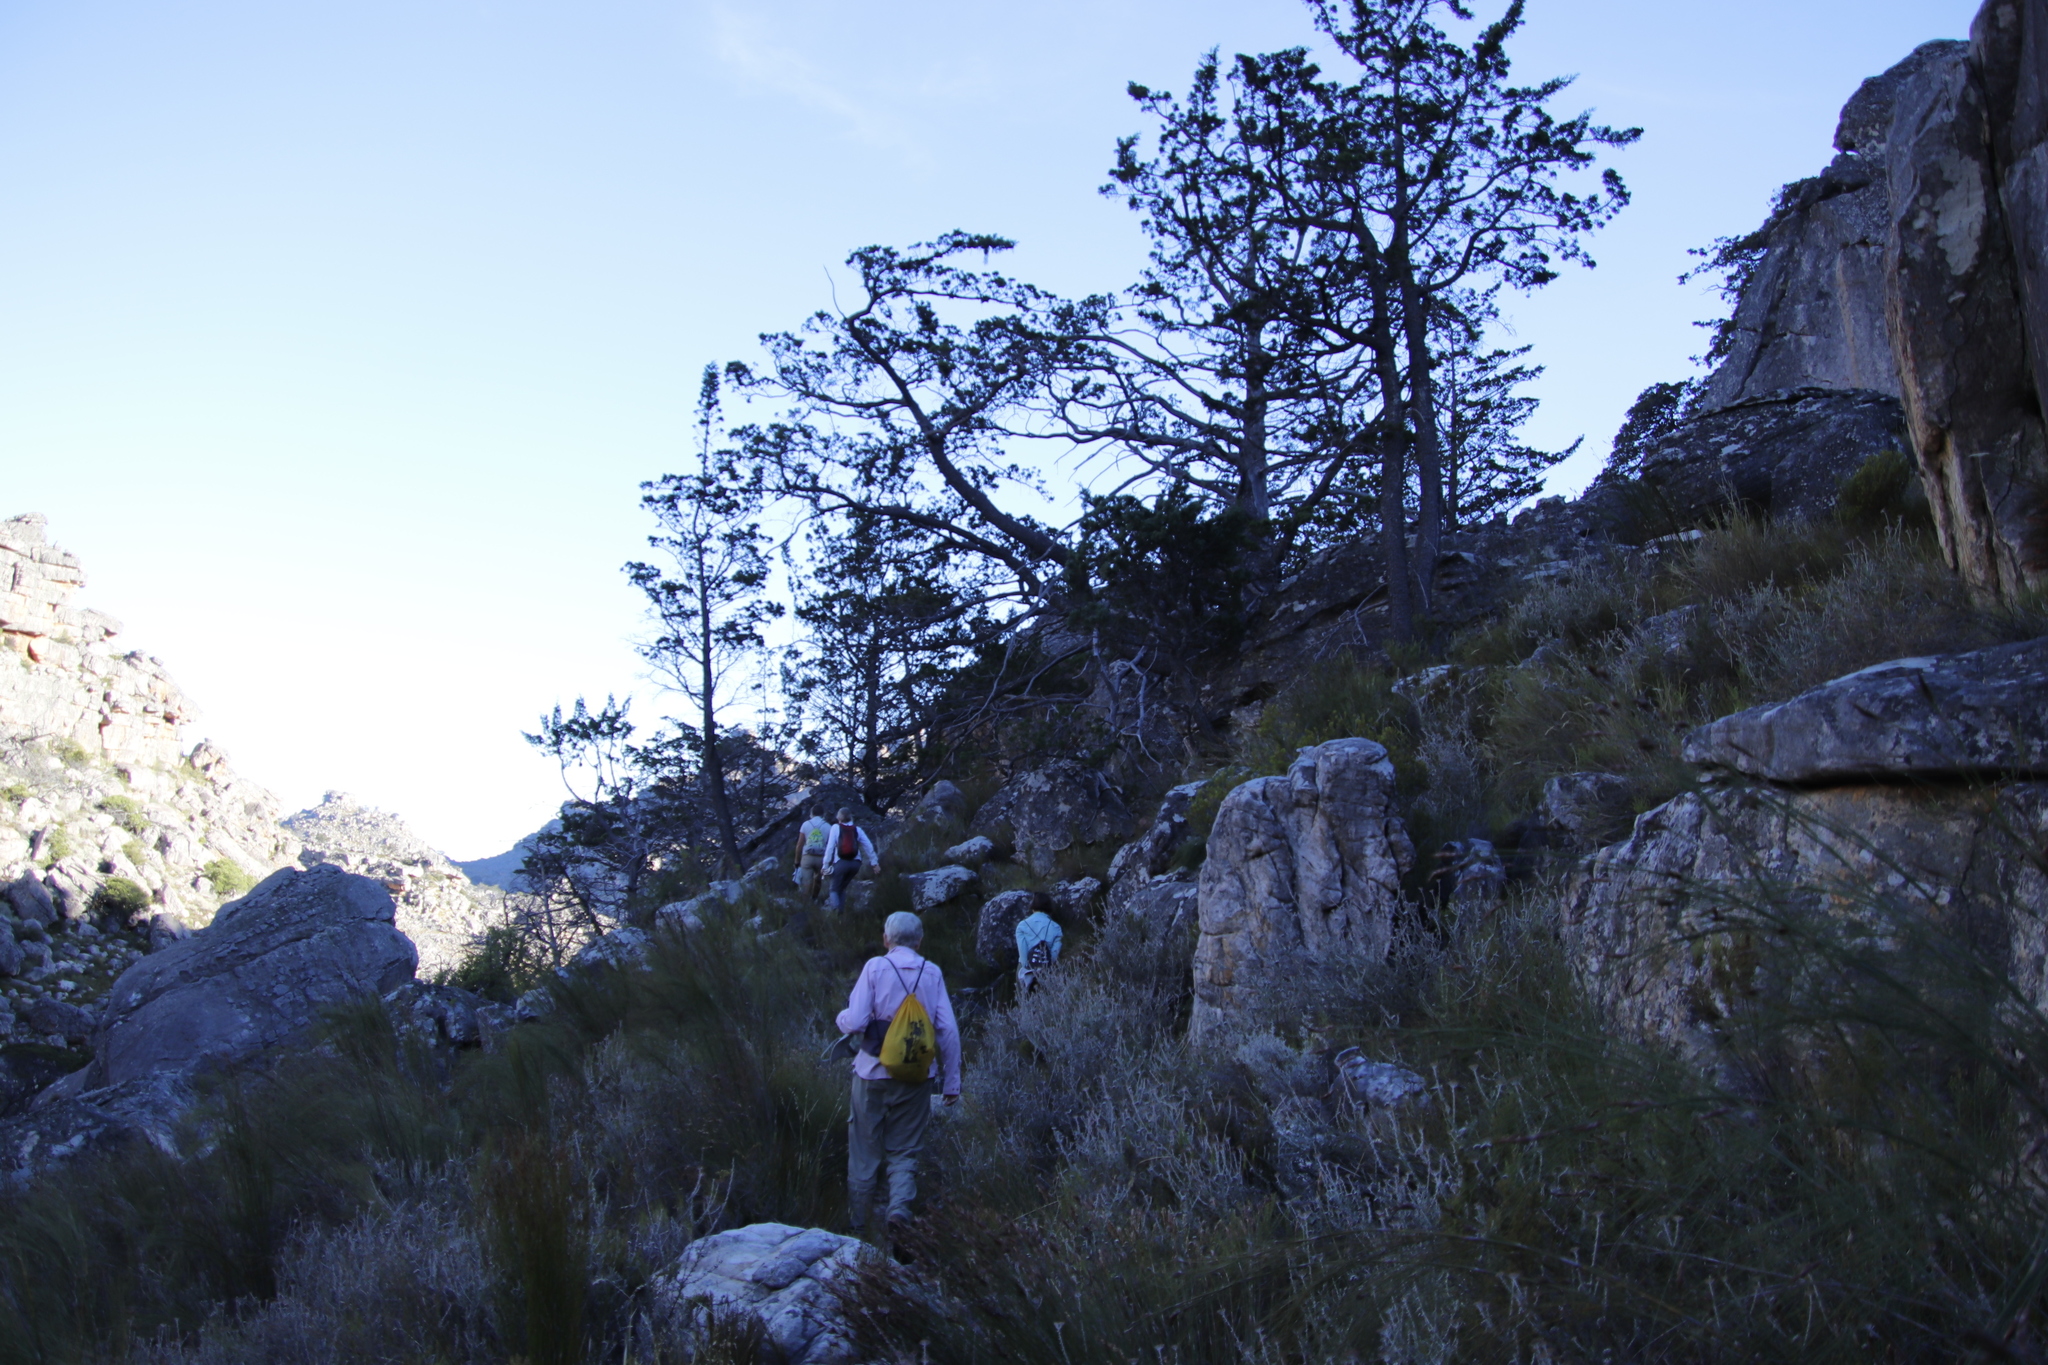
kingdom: Plantae
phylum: Tracheophyta
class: Pinopsida
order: Pinales
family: Cupressaceae
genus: Widdringtonia
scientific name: Widdringtonia nodiflora
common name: Cape cypress
